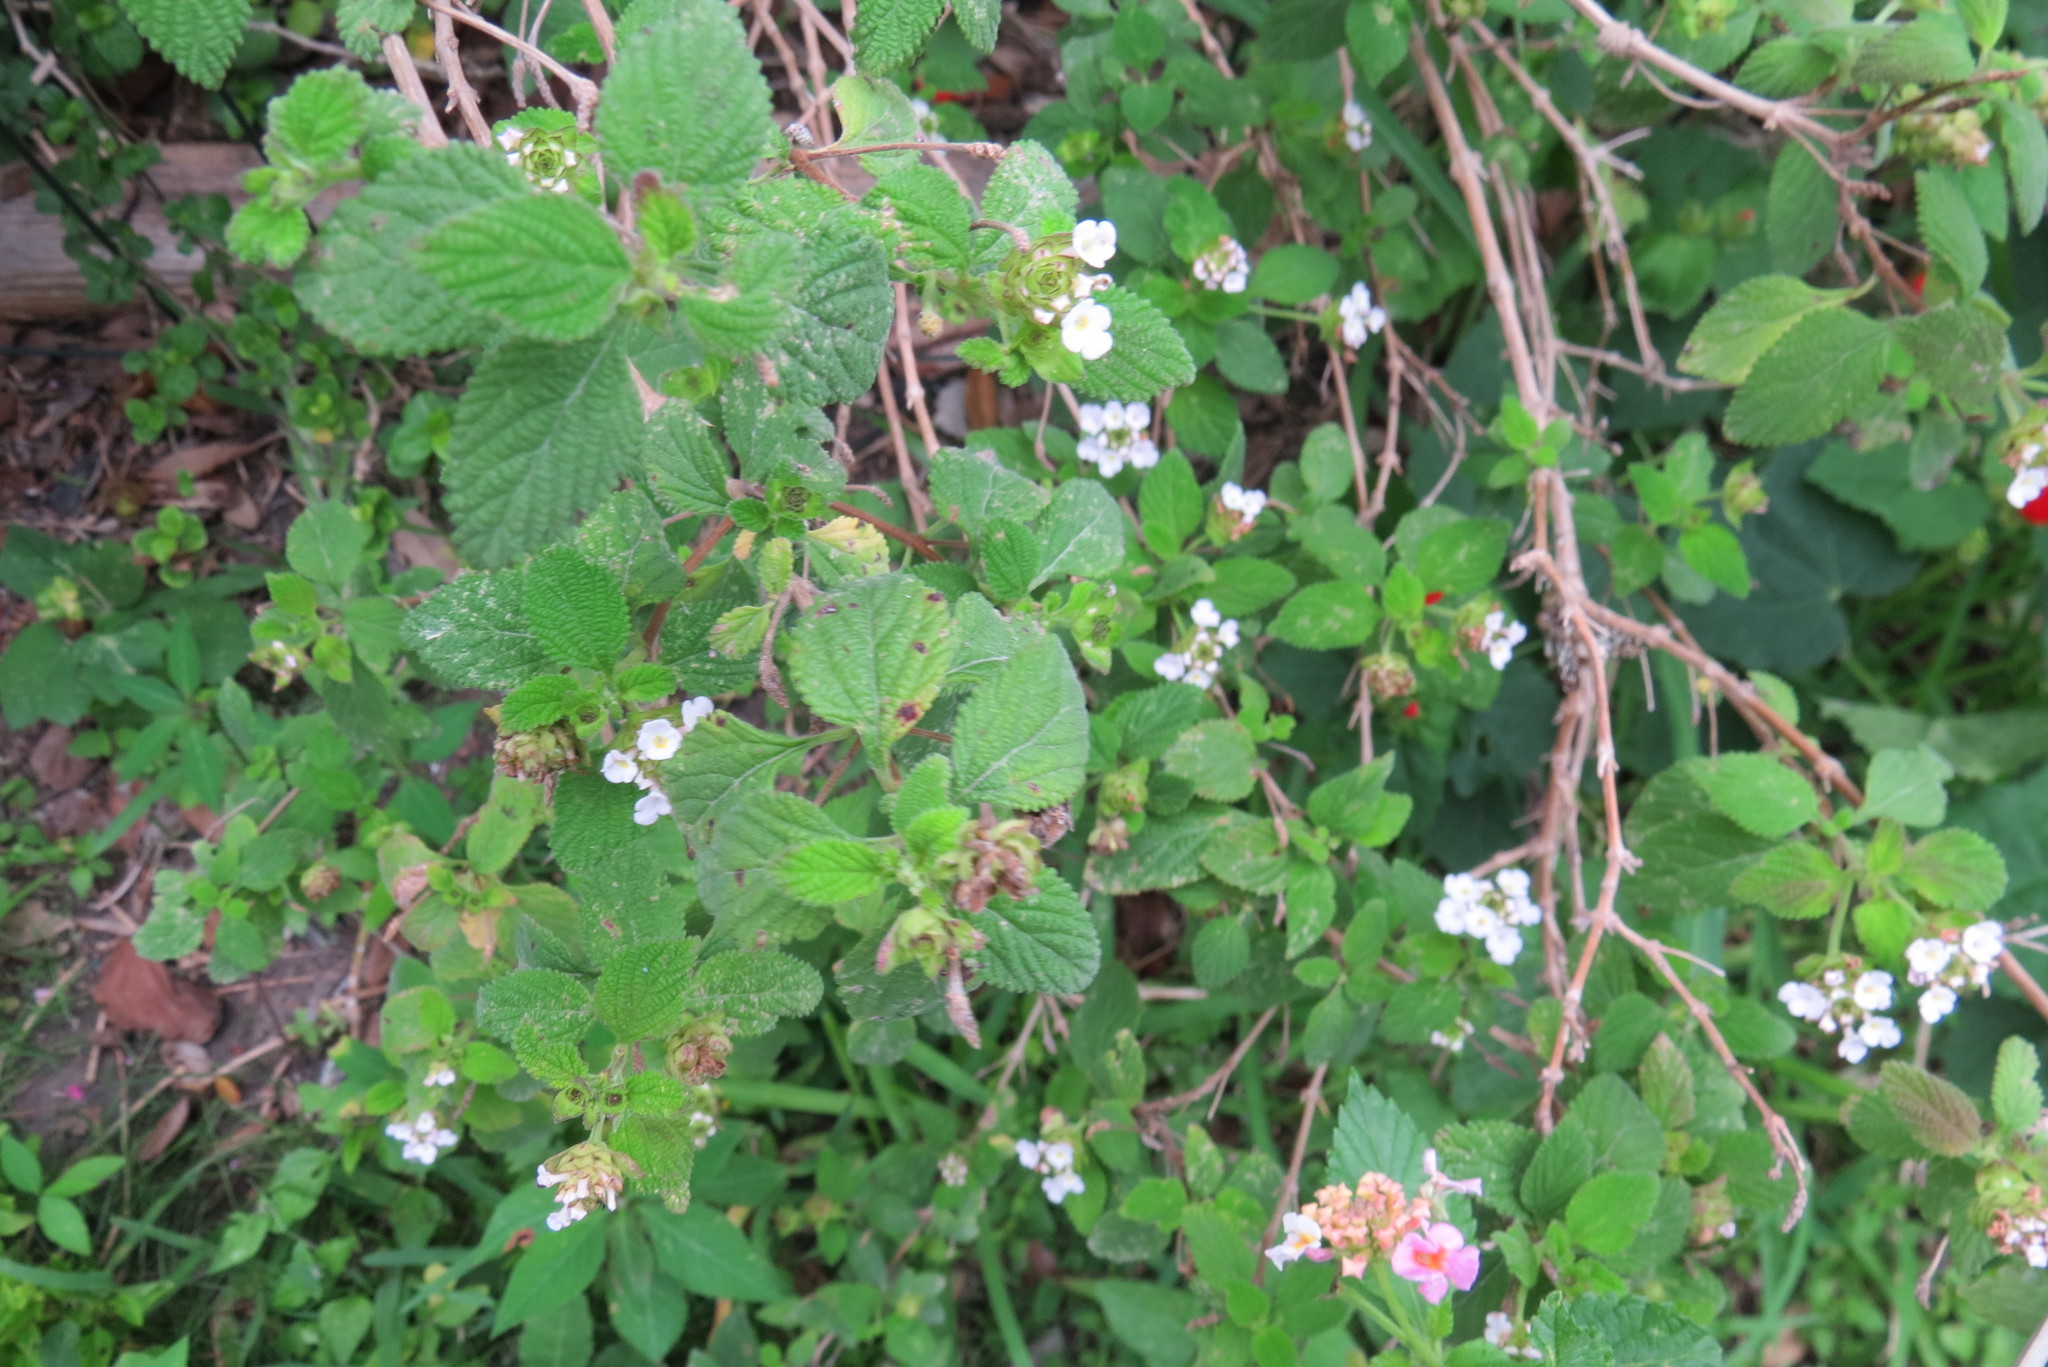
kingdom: Plantae
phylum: Tracheophyta
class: Magnoliopsida
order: Lamiales
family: Verbenaceae
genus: Lantana
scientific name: Lantana velutina
